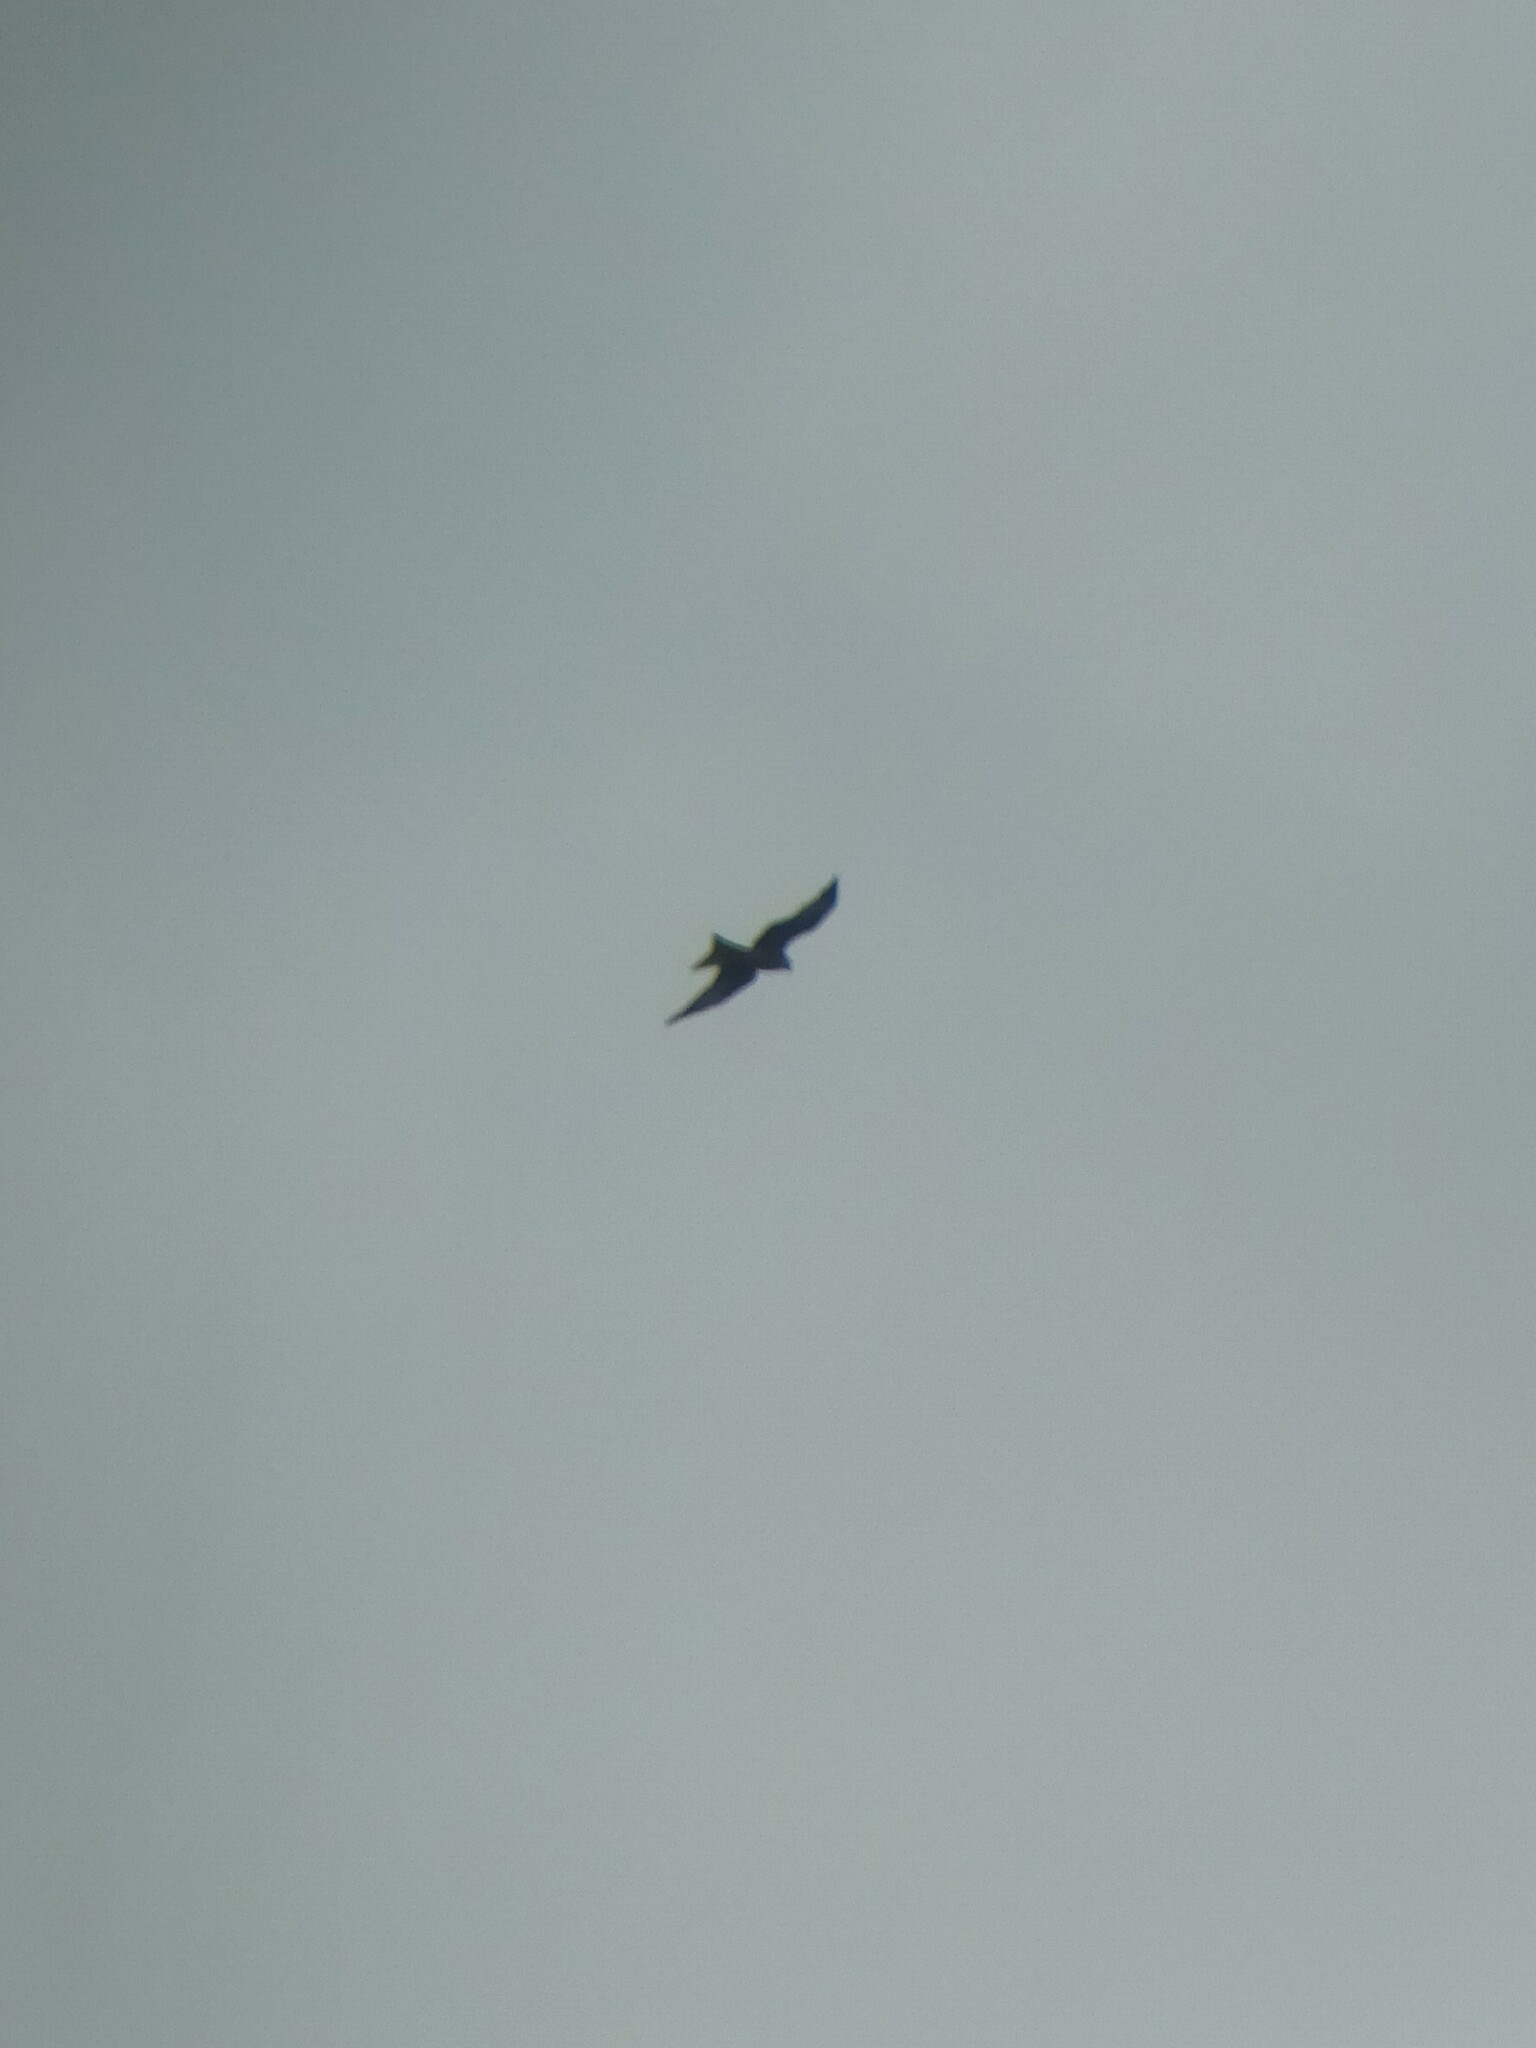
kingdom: Animalia
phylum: Chordata
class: Aves
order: Accipitriformes
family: Accipitridae
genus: Milvus
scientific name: Milvus milvus
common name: Red kite
